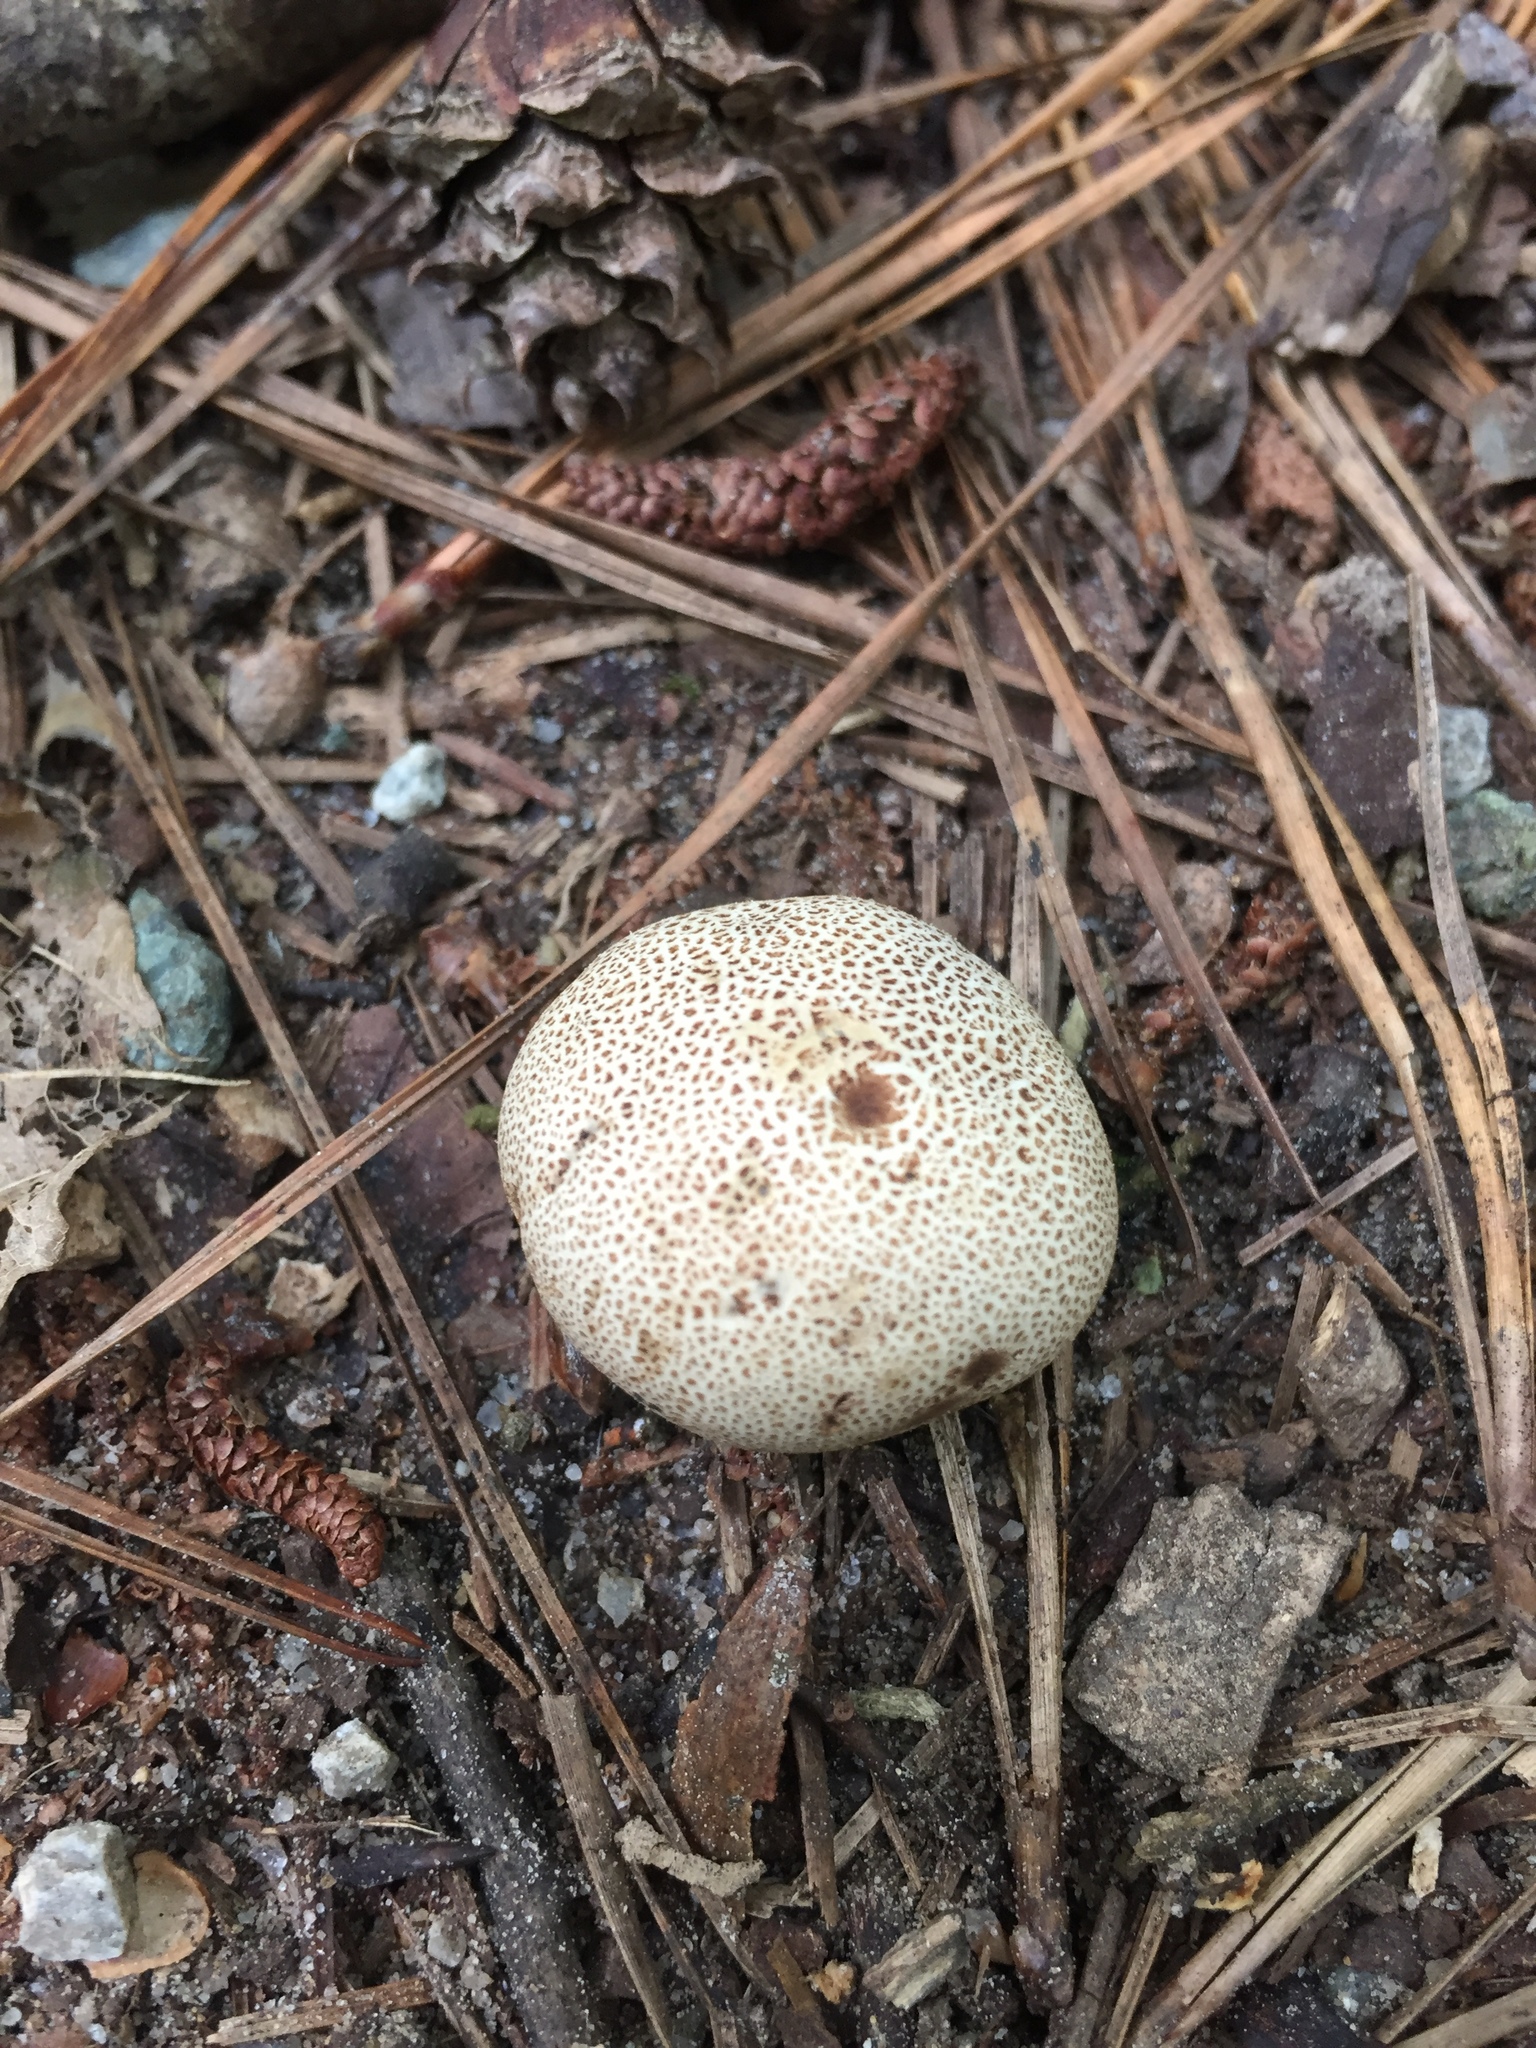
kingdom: Fungi
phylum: Basidiomycota
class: Agaricomycetes
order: Boletales
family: Sclerodermataceae
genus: Scleroderma
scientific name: Scleroderma citrinum
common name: Common earthball
